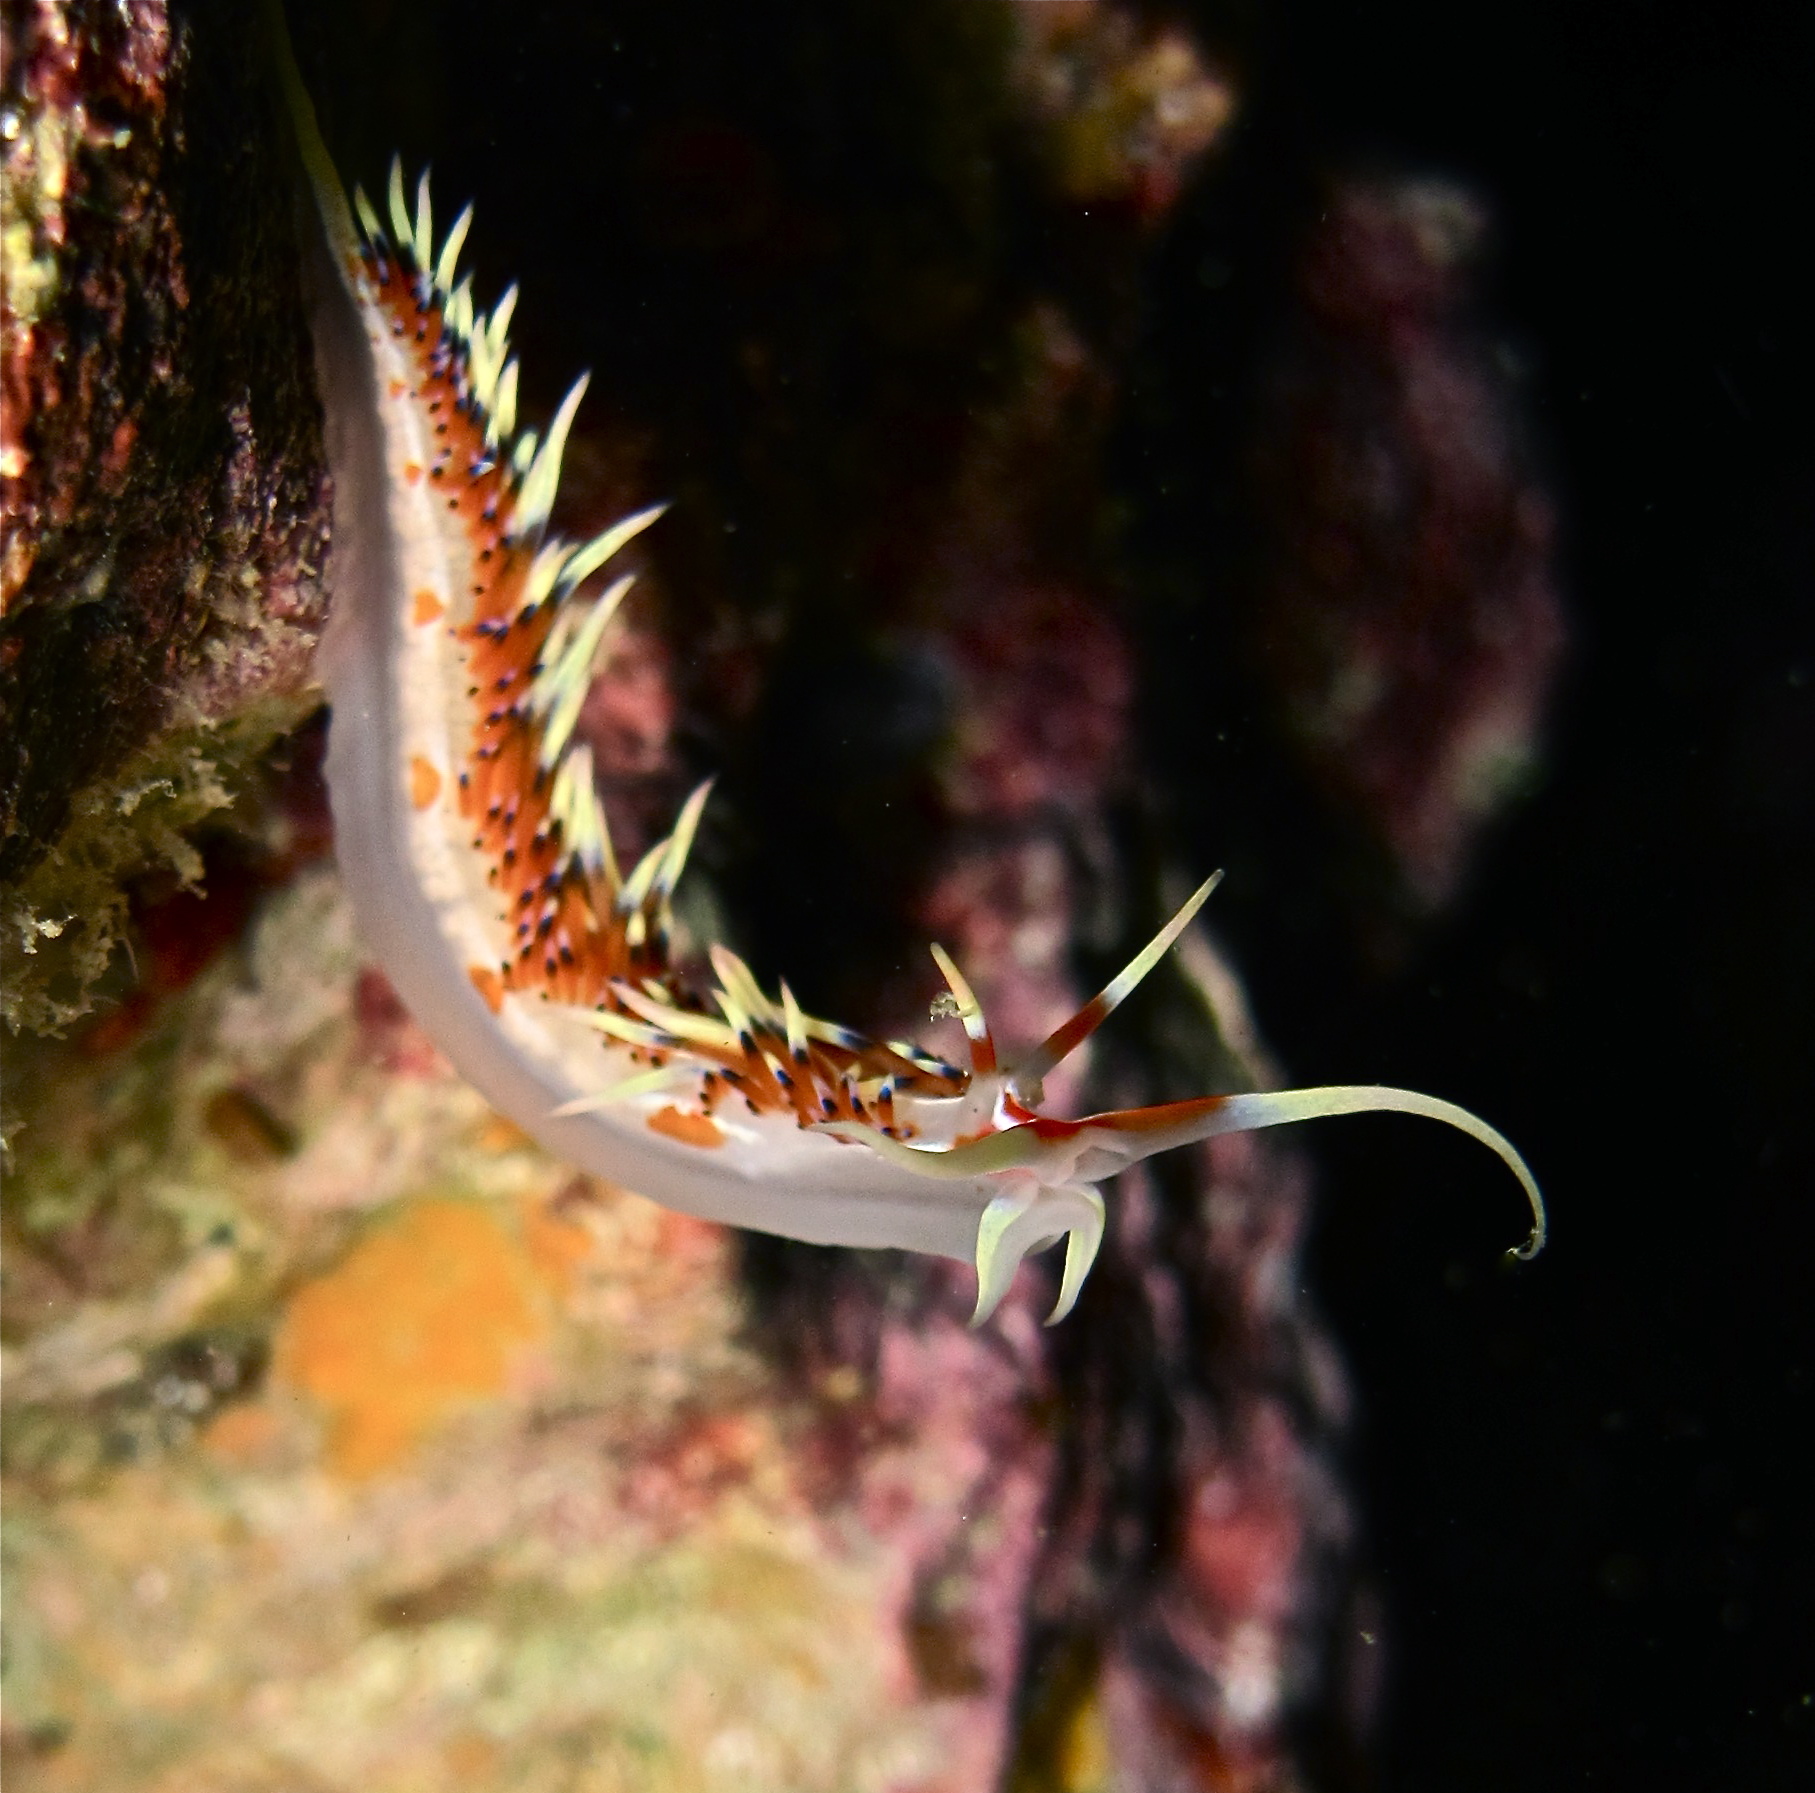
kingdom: Animalia
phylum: Mollusca
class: Gastropoda
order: Nudibranchia
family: Facelinidae
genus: Caloria
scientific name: Caloria indica
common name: Sea slug
